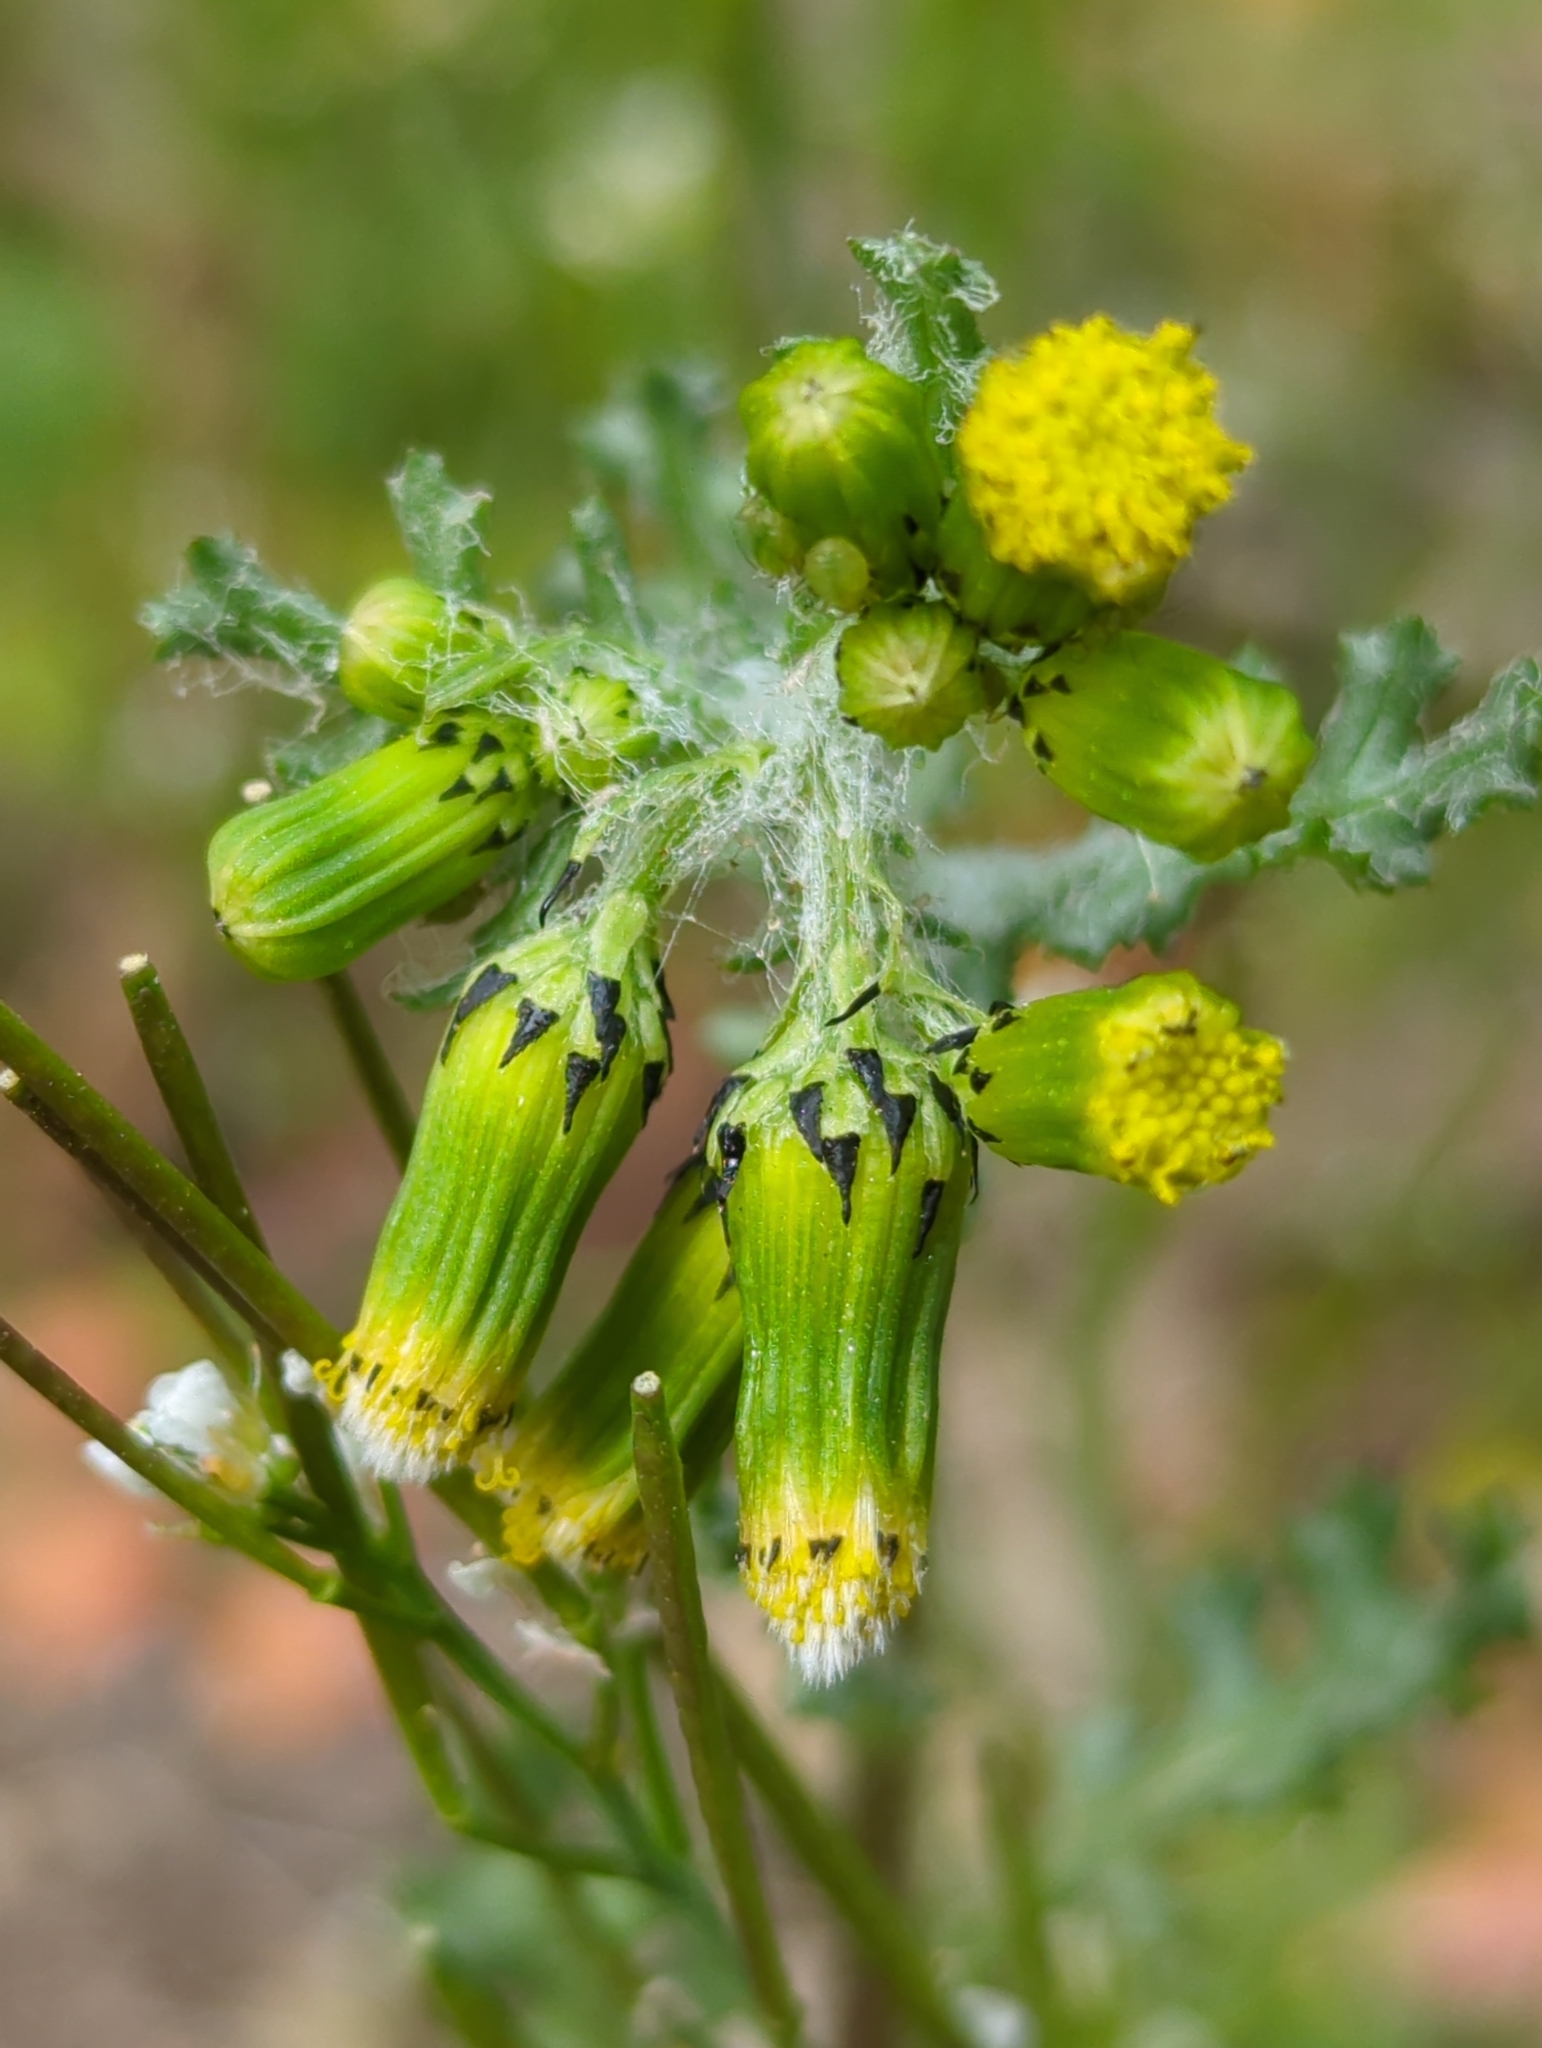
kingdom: Plantae
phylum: Tracheophyta
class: Magnoliopsida
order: Asterales
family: Asteraceae
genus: Senecio
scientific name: Senecio vulgaris
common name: Old-man-in-the-spring
